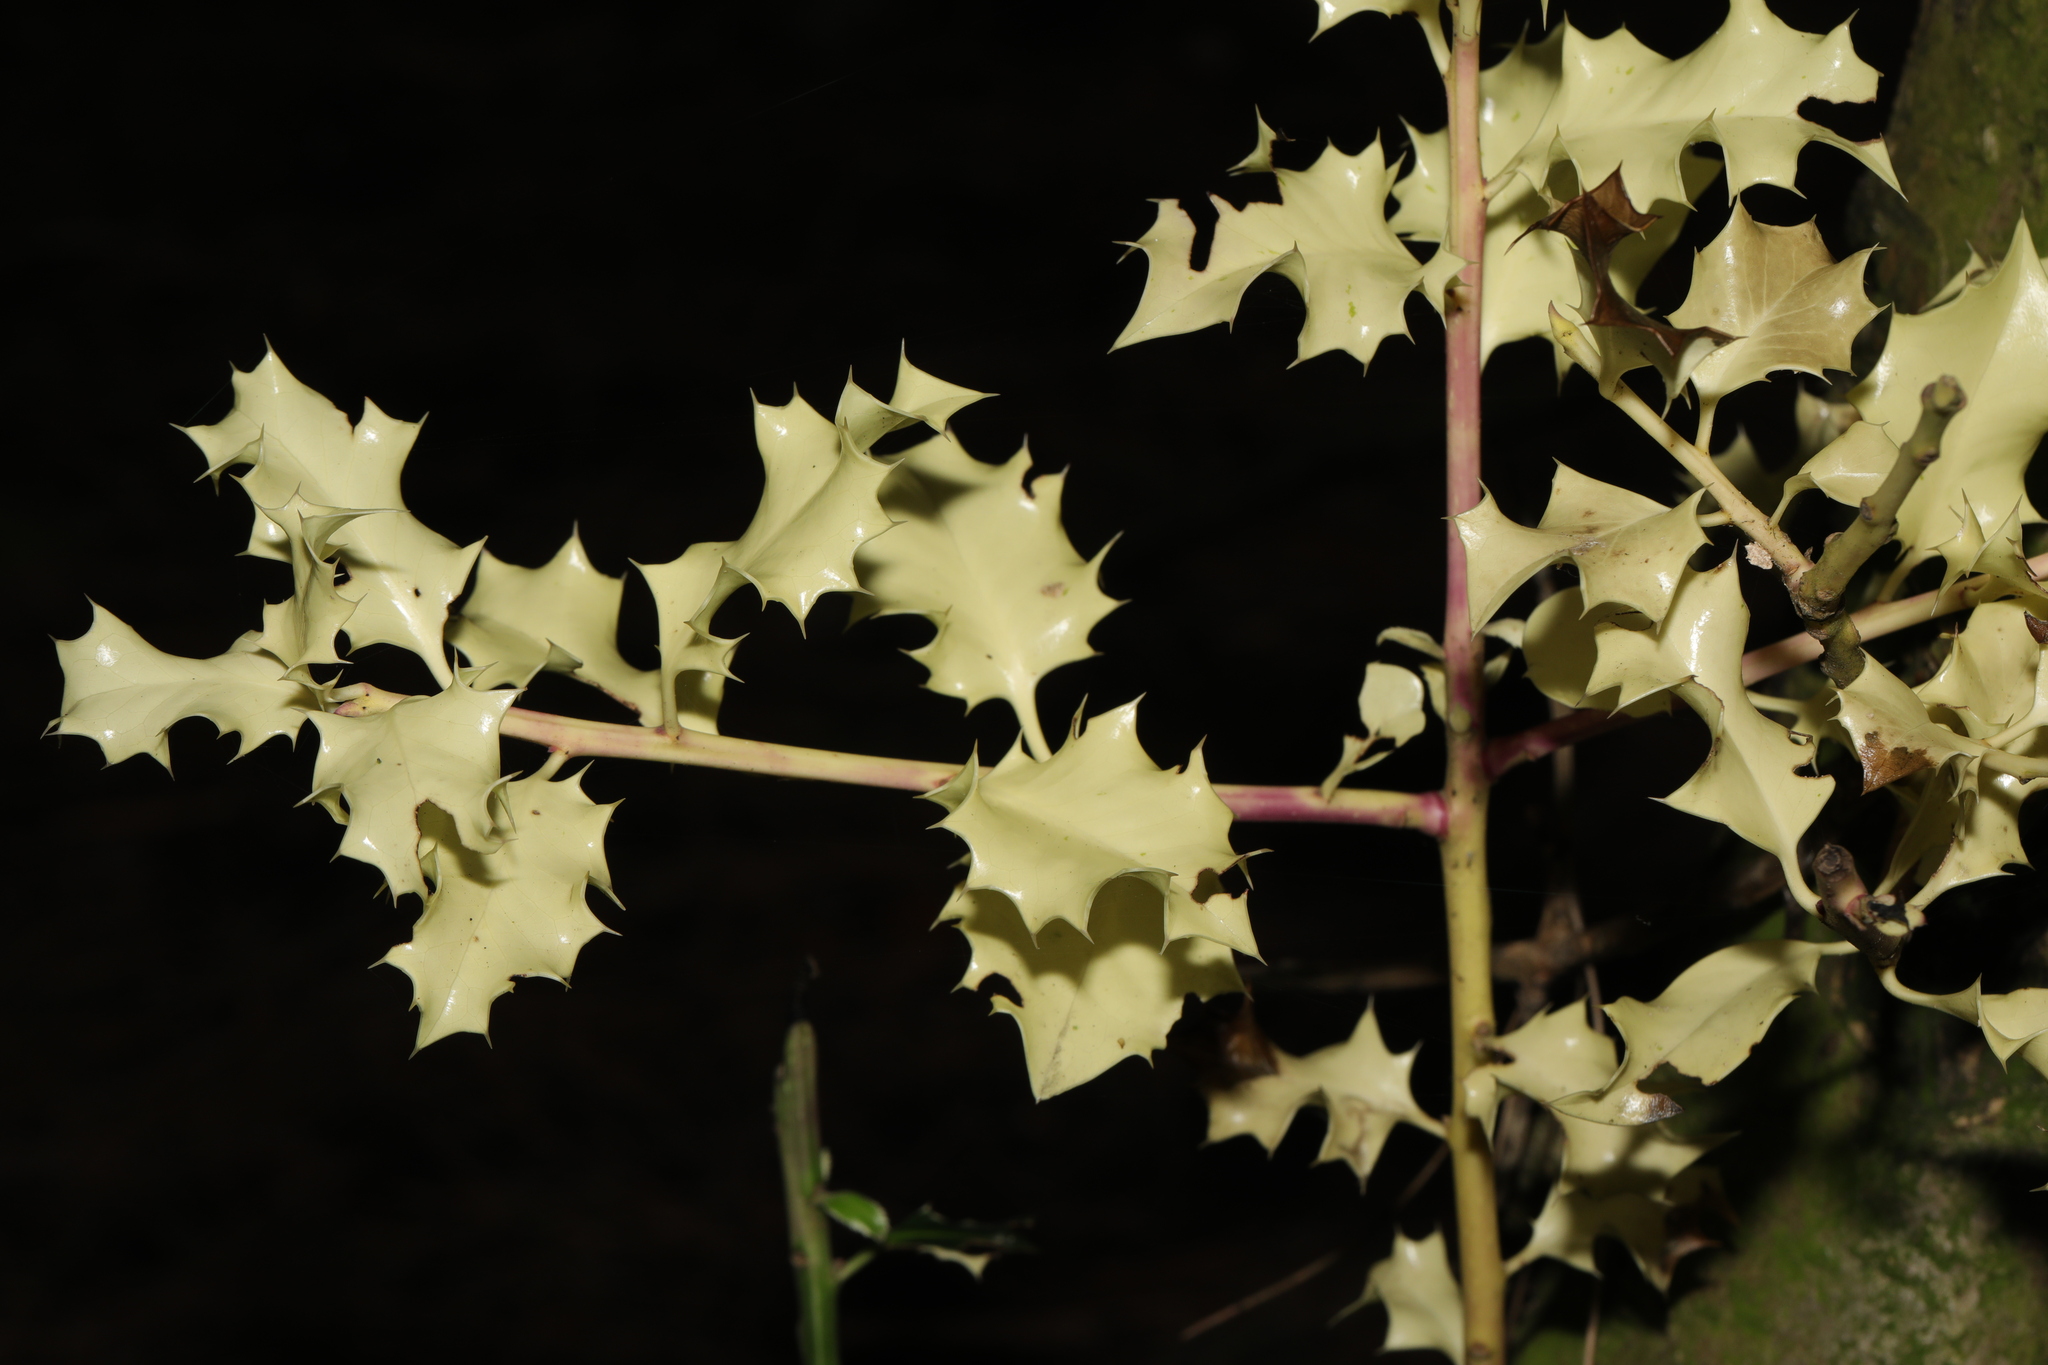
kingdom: Plantae
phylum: Tracheophyta
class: Magnoliopsida
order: Aquifoliales
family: Aquifoliaceae
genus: Ilex
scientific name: Ilex aquifolium
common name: English holly
